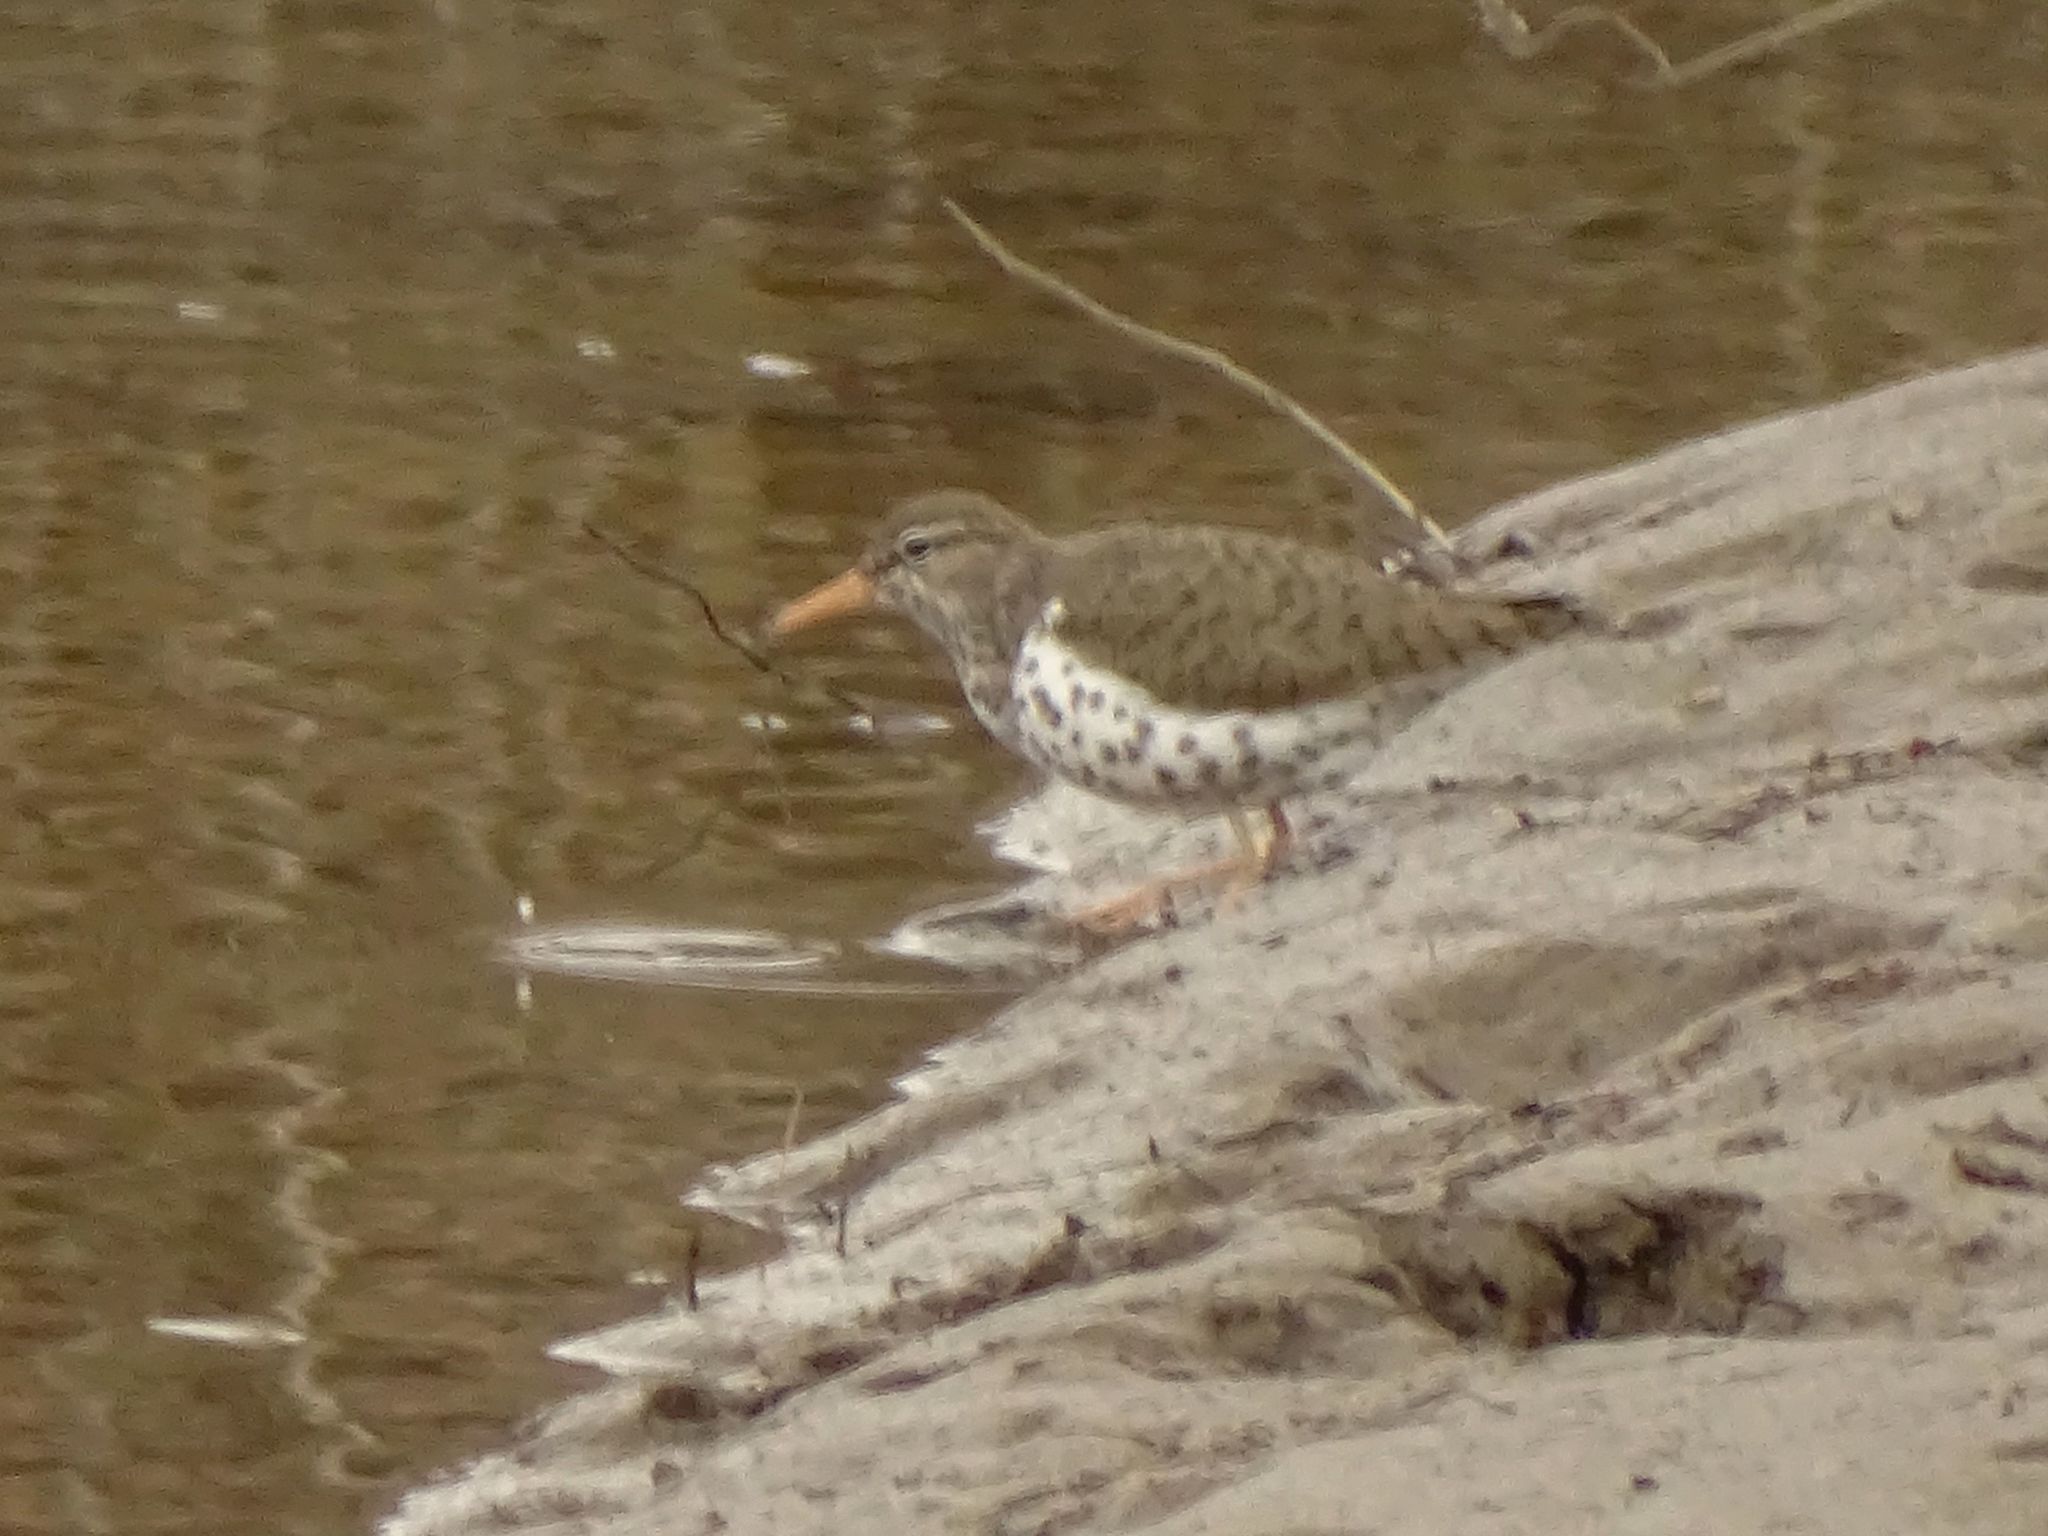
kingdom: Animalia
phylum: Chordata
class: Aves
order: Charadriiformes
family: Scolopacidae
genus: Actitis
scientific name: Actitis macularius
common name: Spotted sandpiper
